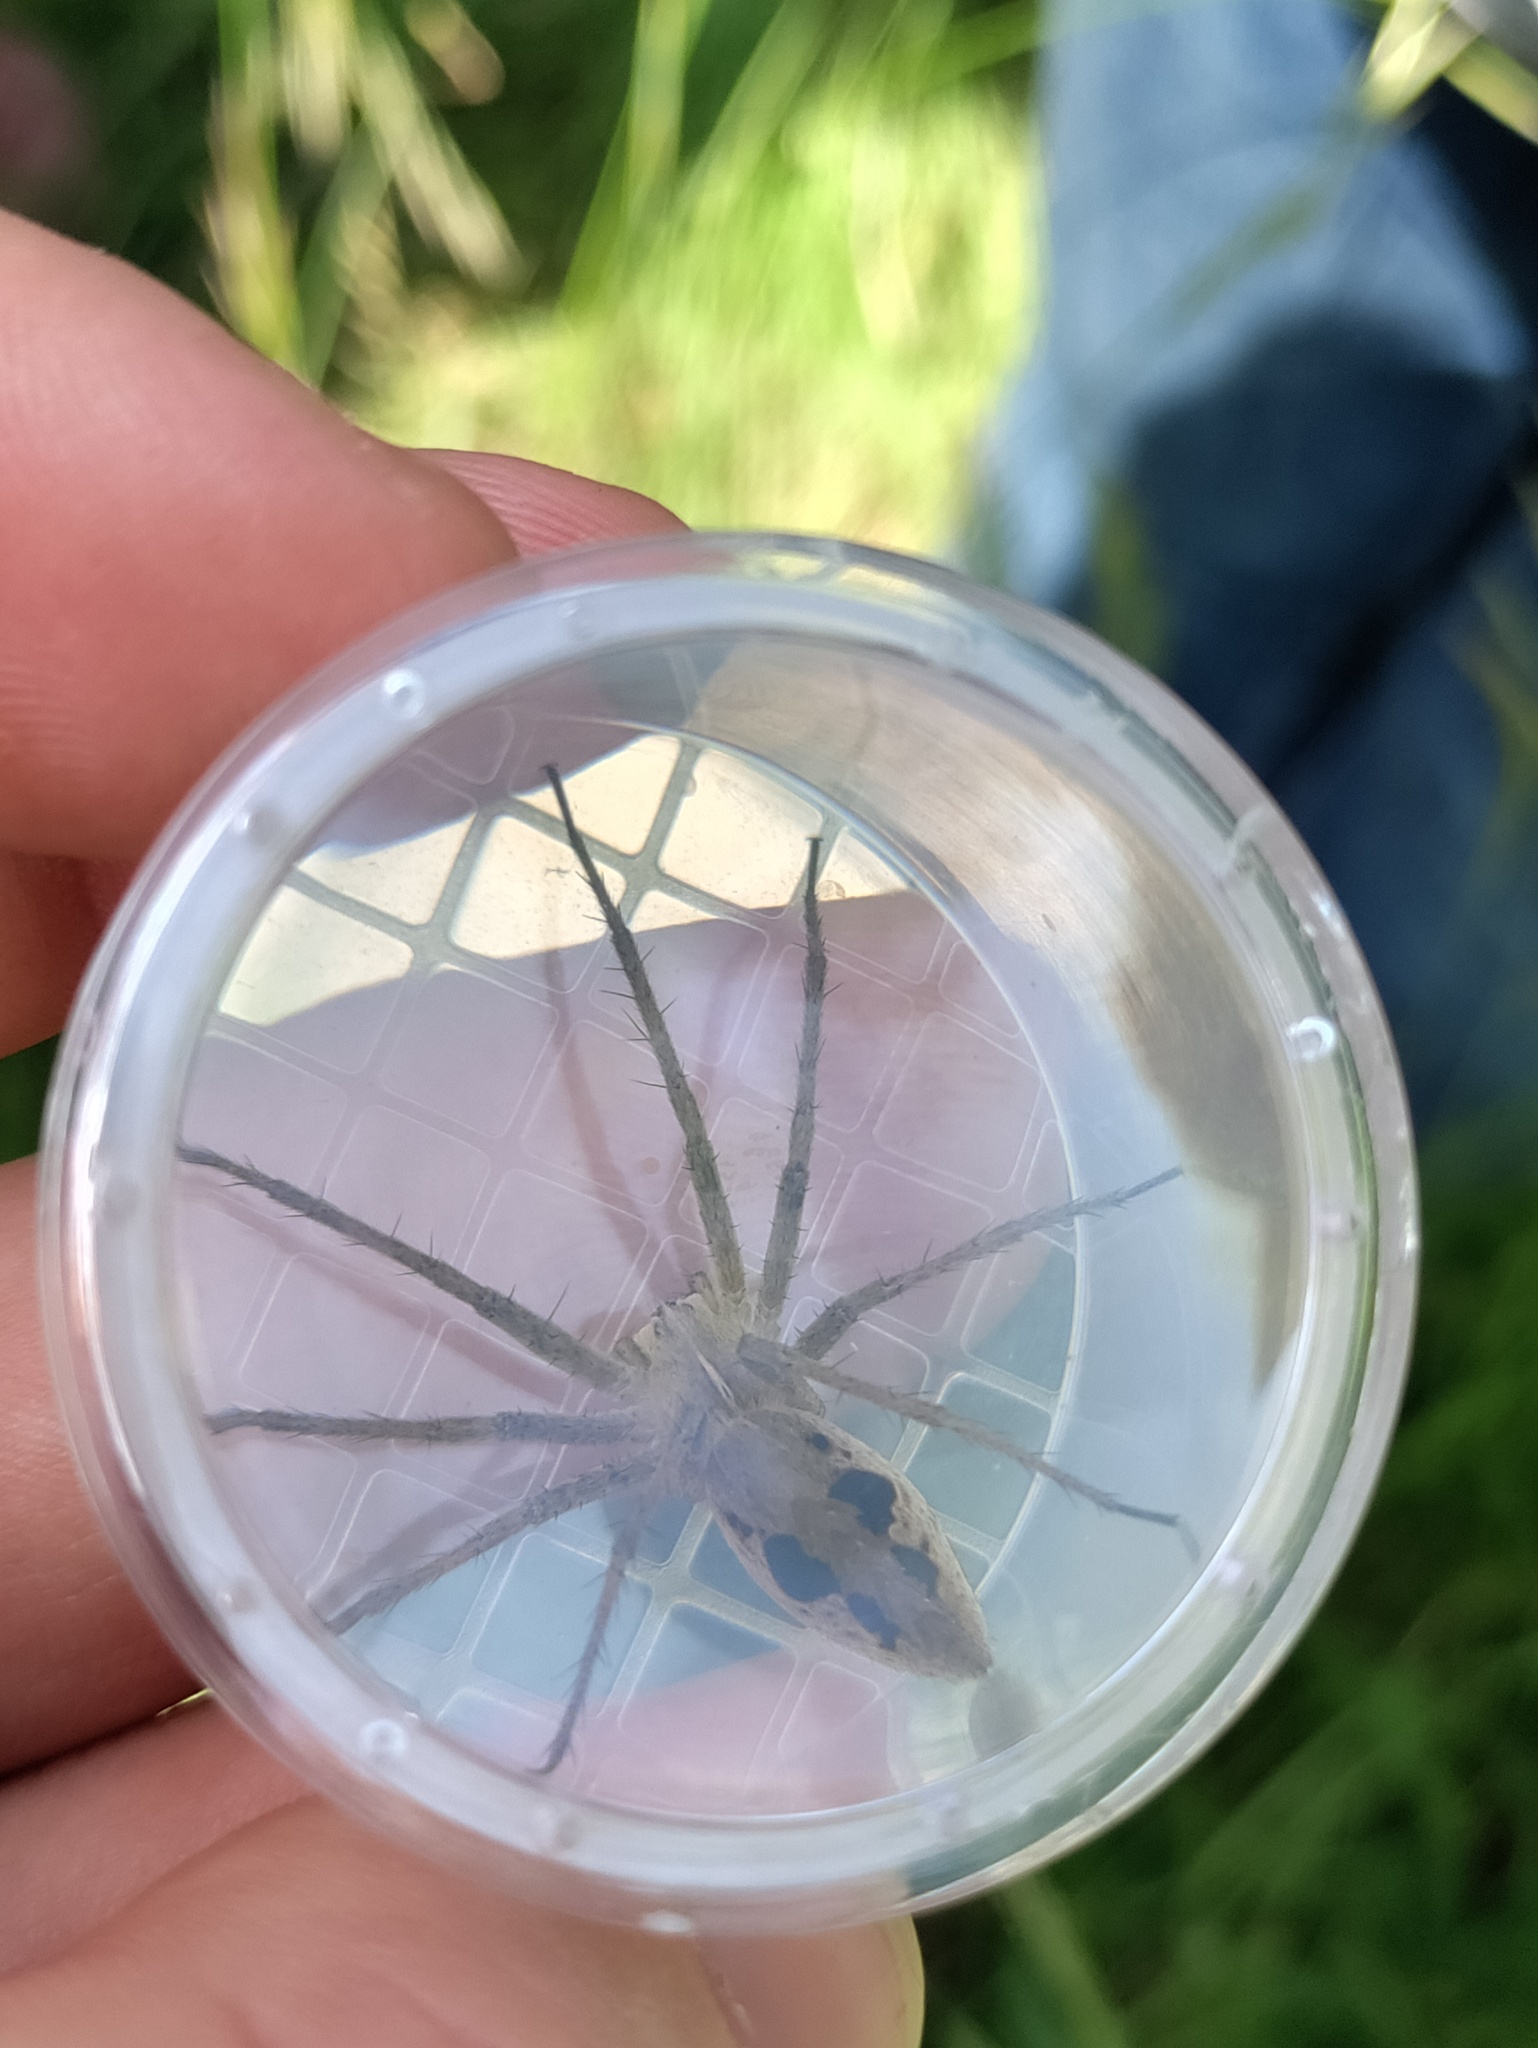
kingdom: Animalia
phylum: Arthropoda
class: Arachnida
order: Araneae
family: Pisauridae
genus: Pisaura
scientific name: Pisaura mirabilis
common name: Tent spider
